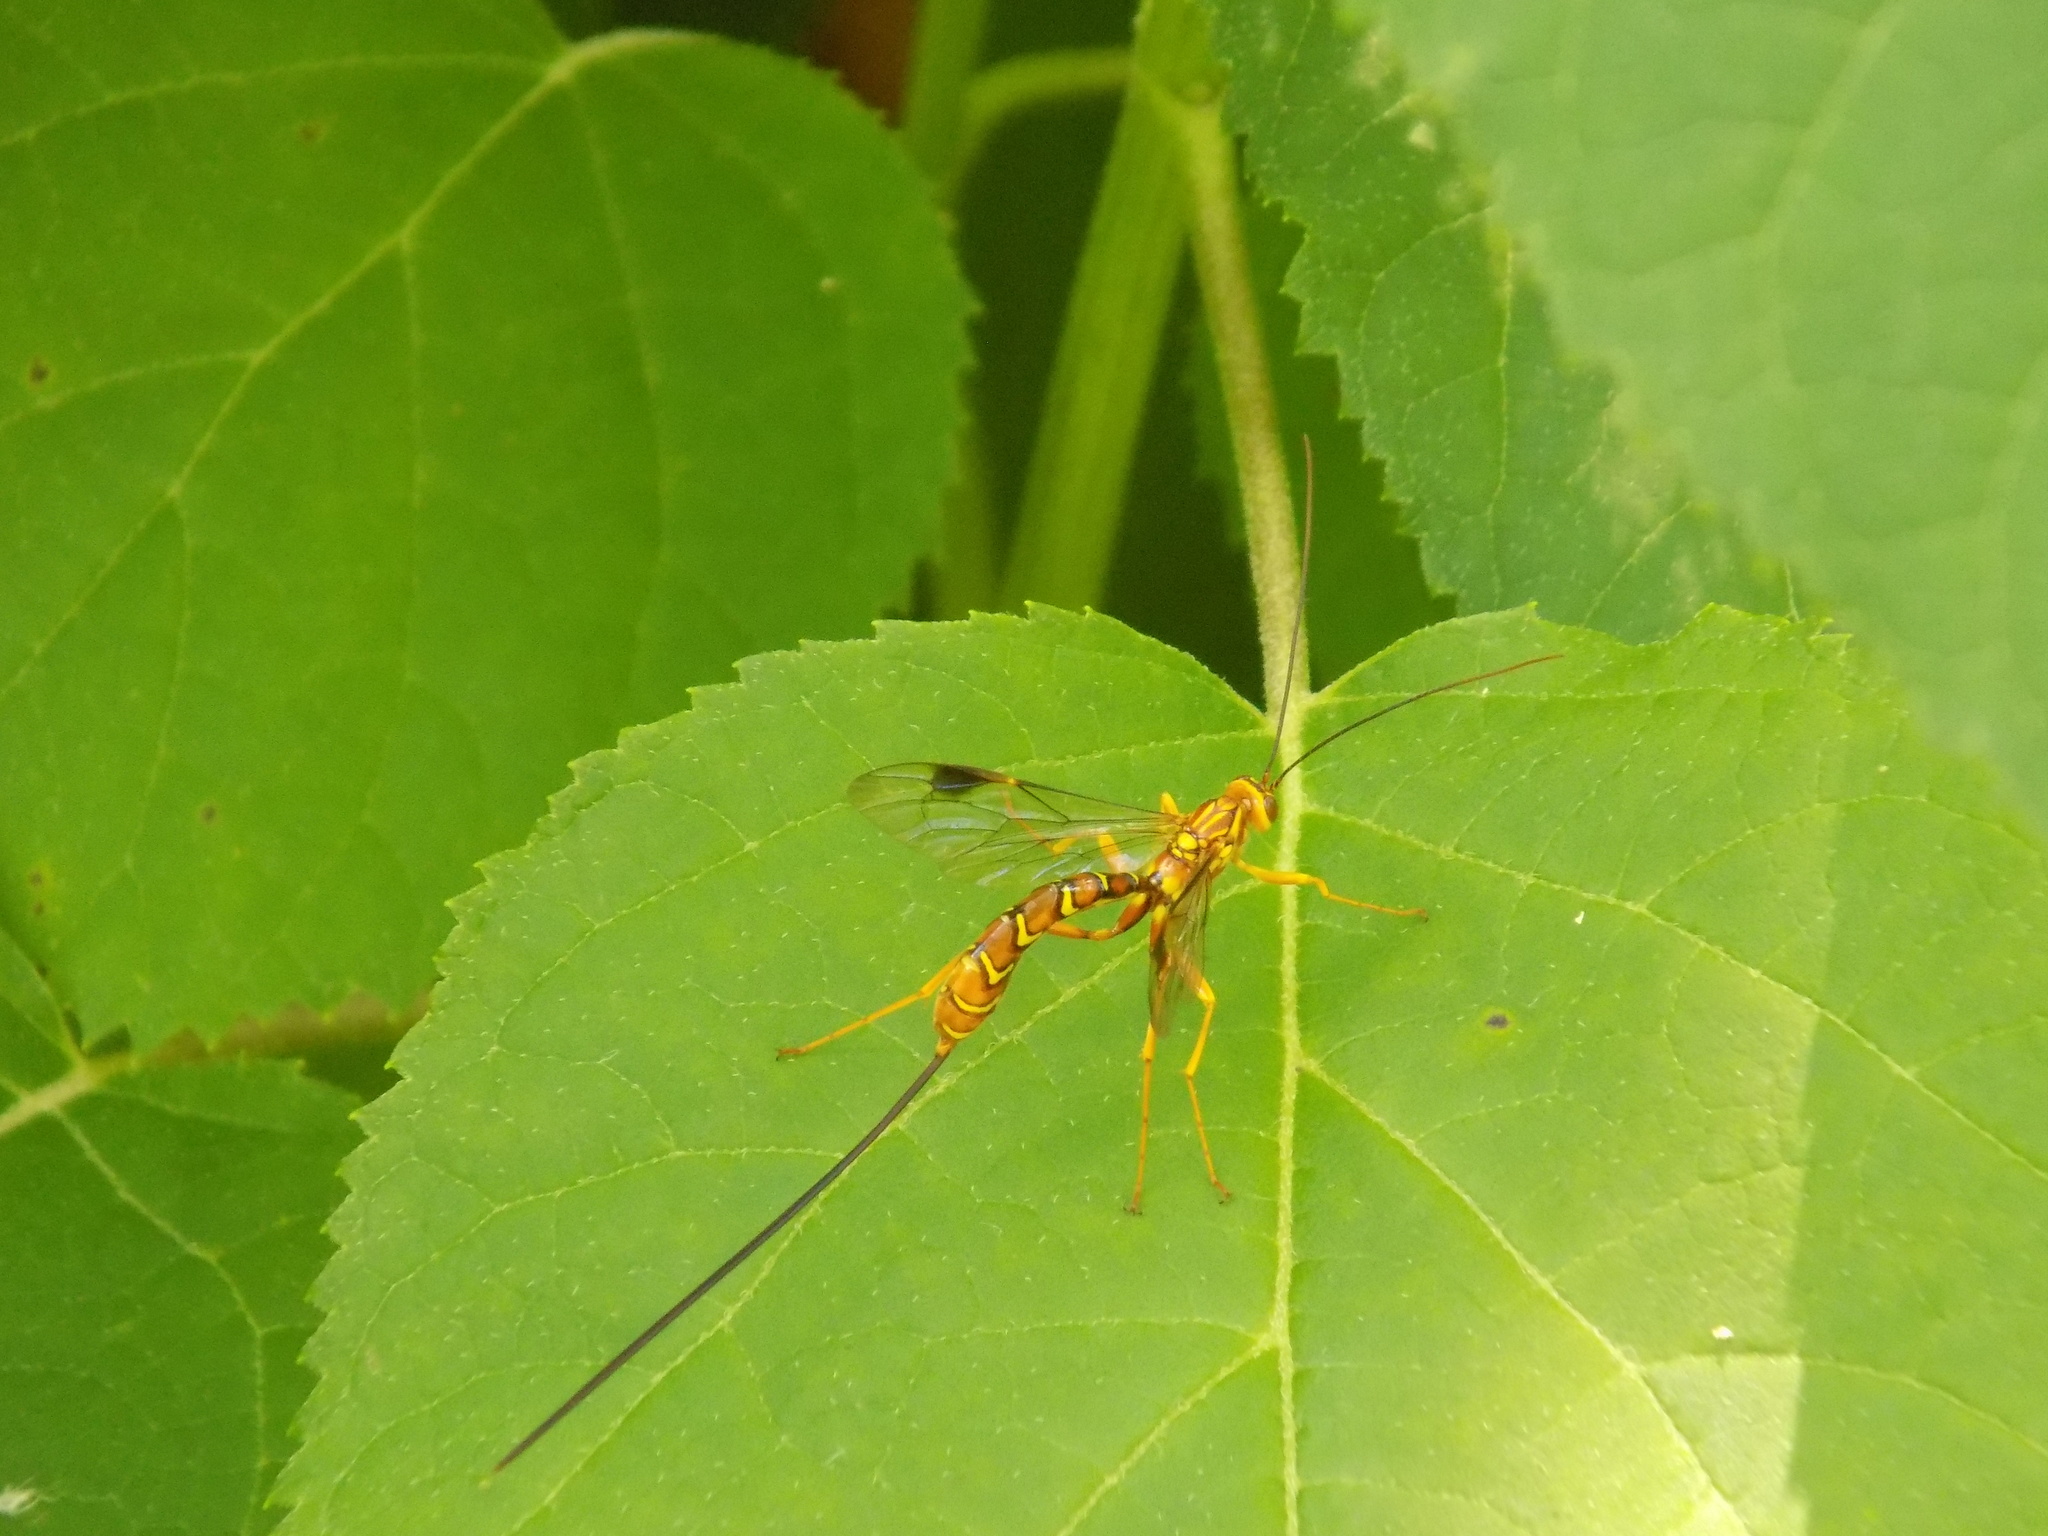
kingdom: Animalia
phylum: Arthropoda
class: Insecta
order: Hymenoptera
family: Ichneumonidae
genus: Megarhyssa
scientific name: Megarhyssa greenei
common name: Greene's giant ichneumonid wasp
